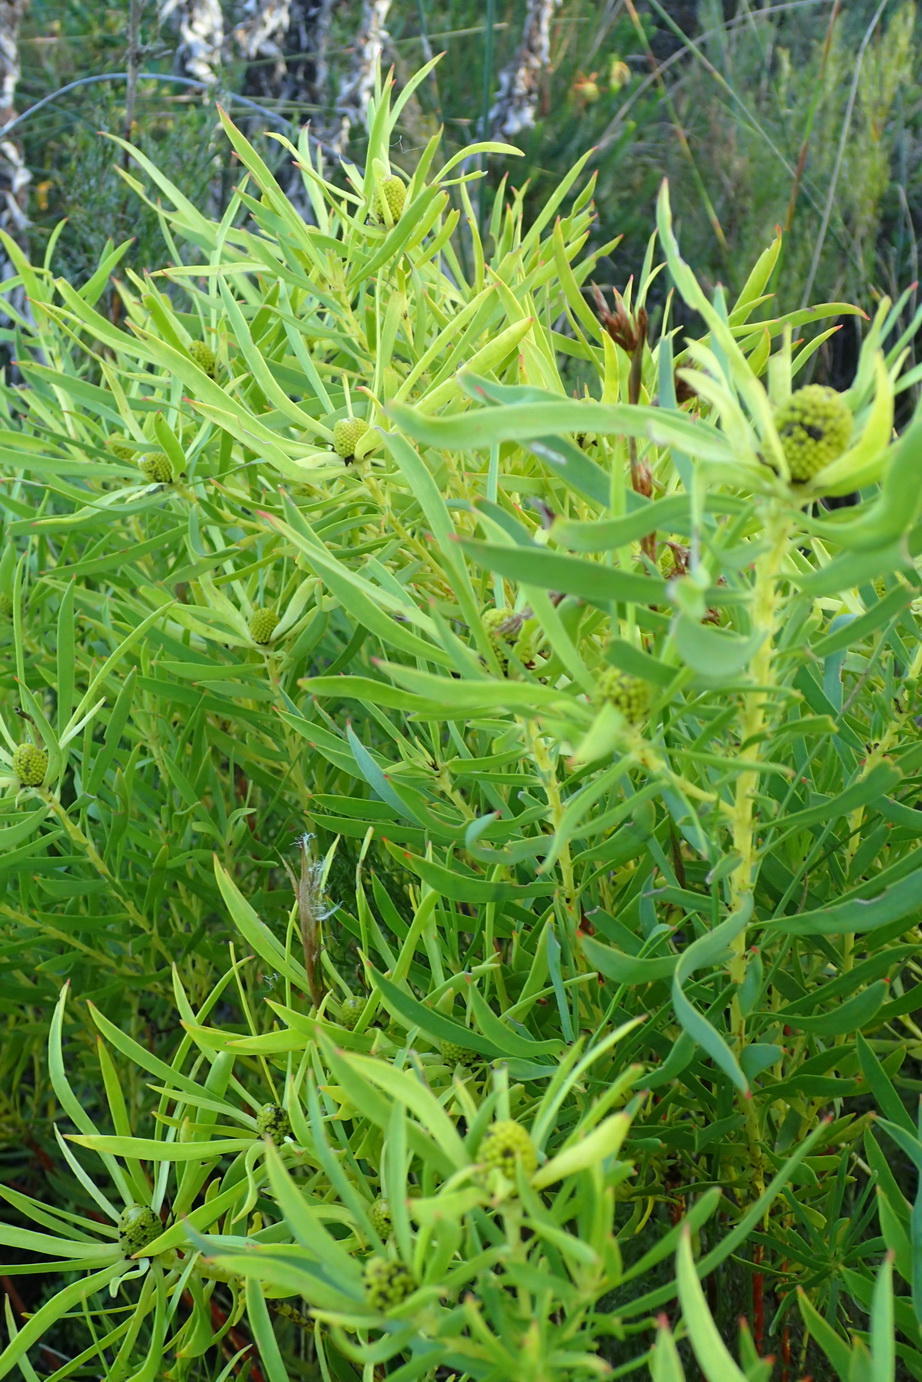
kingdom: Plantae
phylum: Tracheophyta
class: Magnoliopsida
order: Proteales
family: Proteaceae
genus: Leucadendron
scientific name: Leucadendron salignum
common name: Common sunshine conebush
